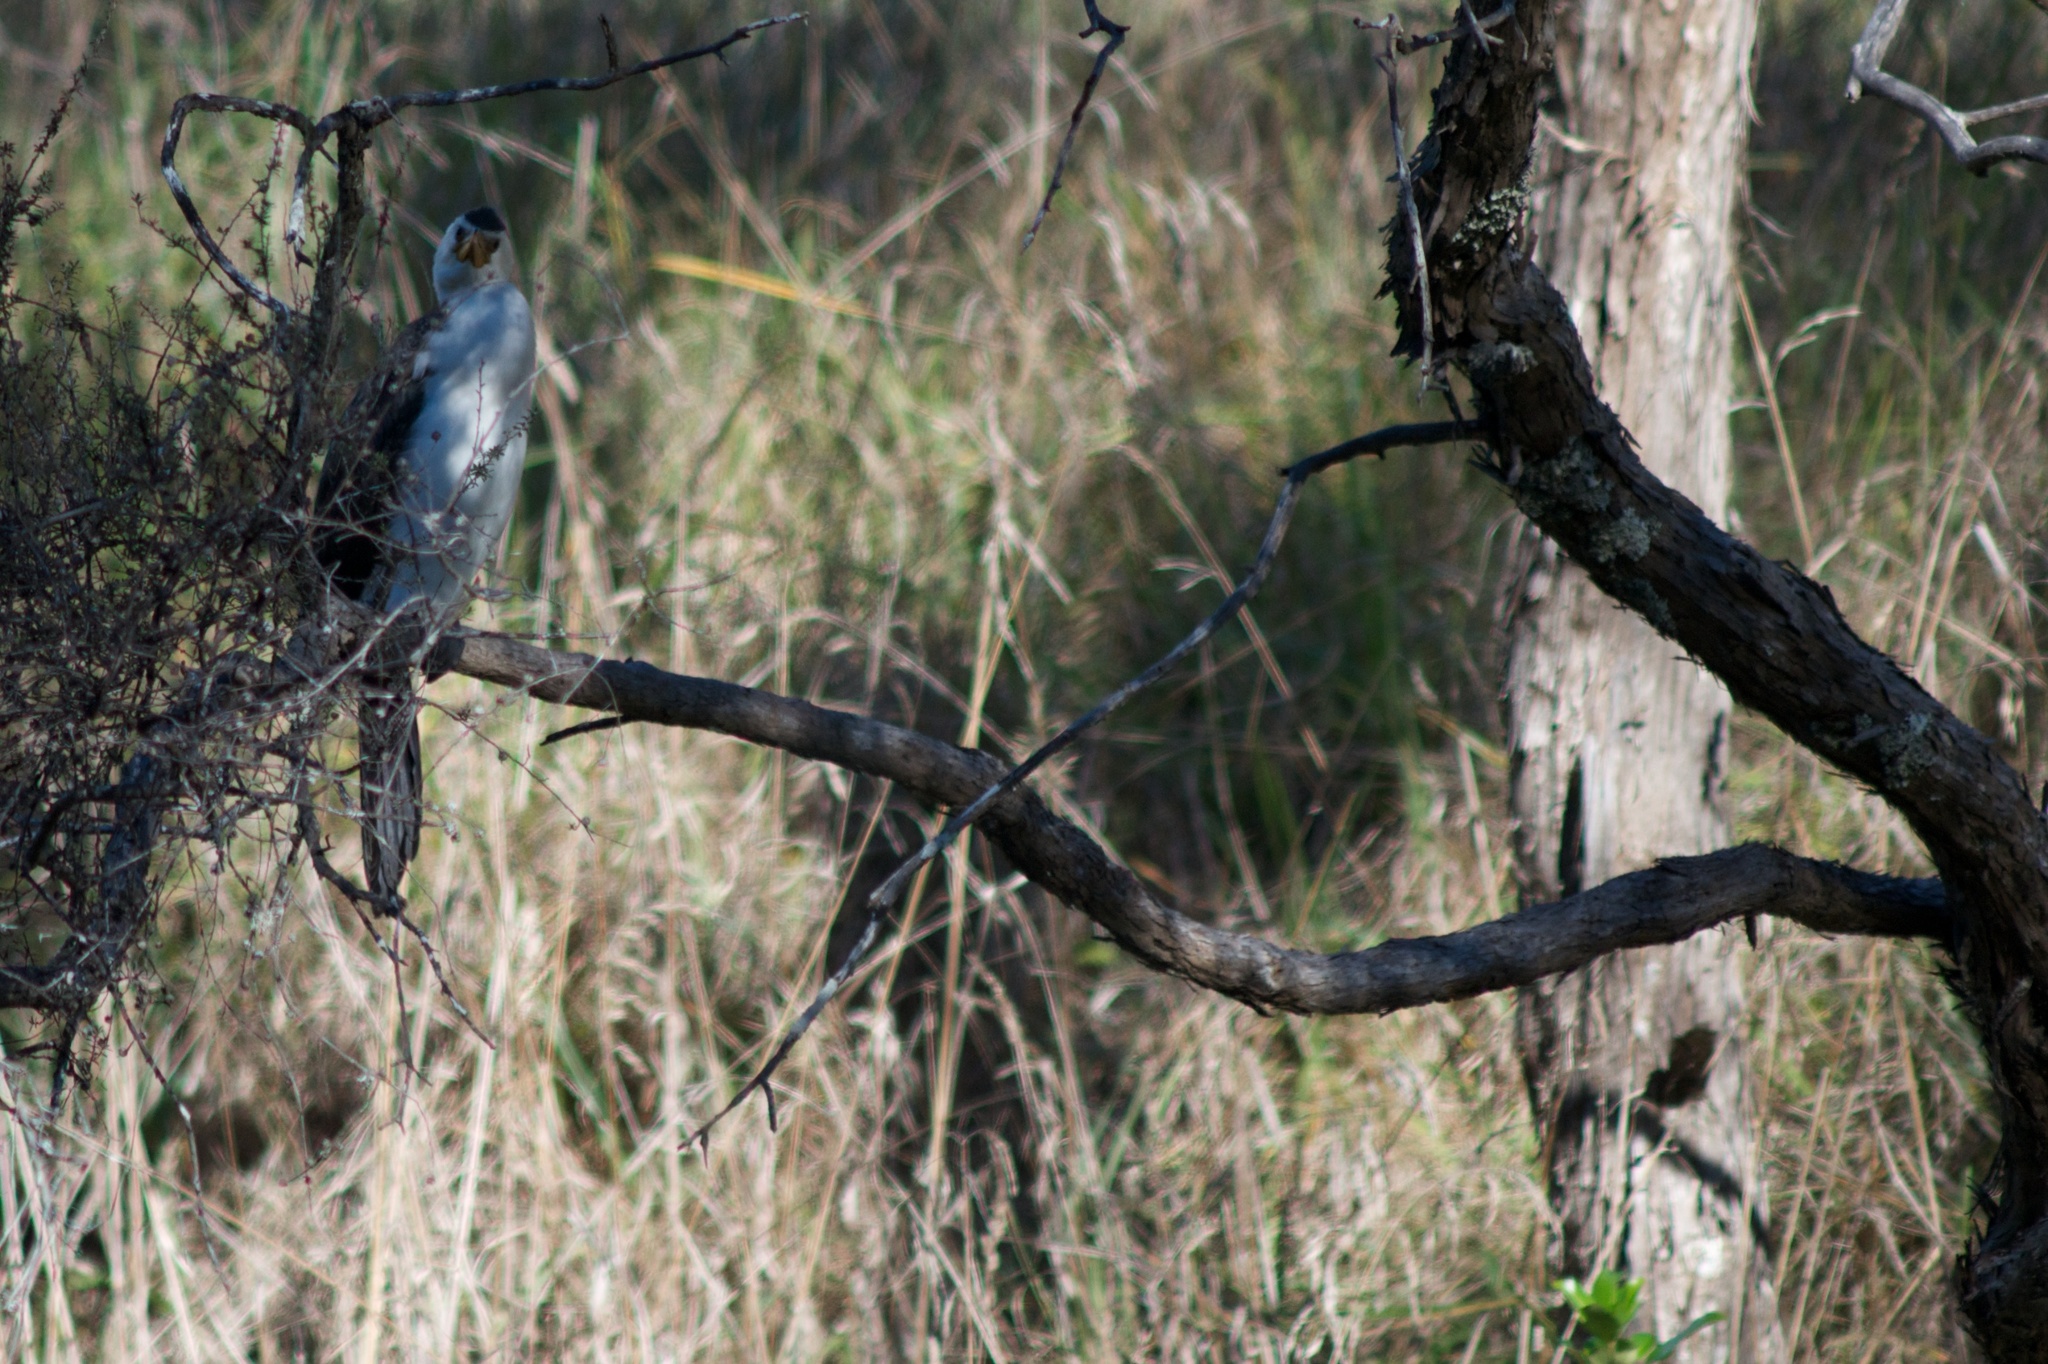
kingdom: Animalia
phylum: Chordata
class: Aves
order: Suliformes
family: Phalacrocoracidae
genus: Microcarbo
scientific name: Microcarbo melanoleucos
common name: Little pied cormorant
